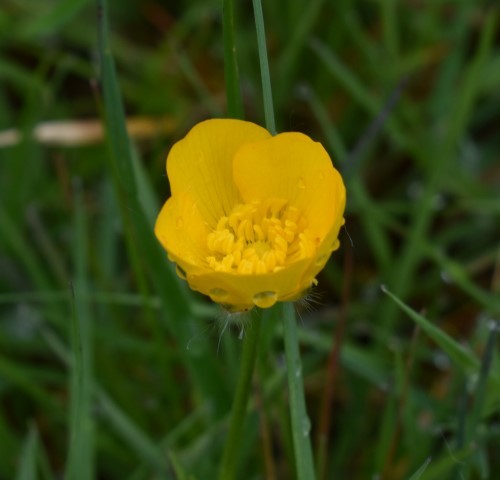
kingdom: Plantae
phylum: Tracheophyta
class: Magnoliopsida
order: Ranunculales
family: Ranunculaceae
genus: Ranunculus
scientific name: Ranunculus repens
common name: Creeping buttercup
